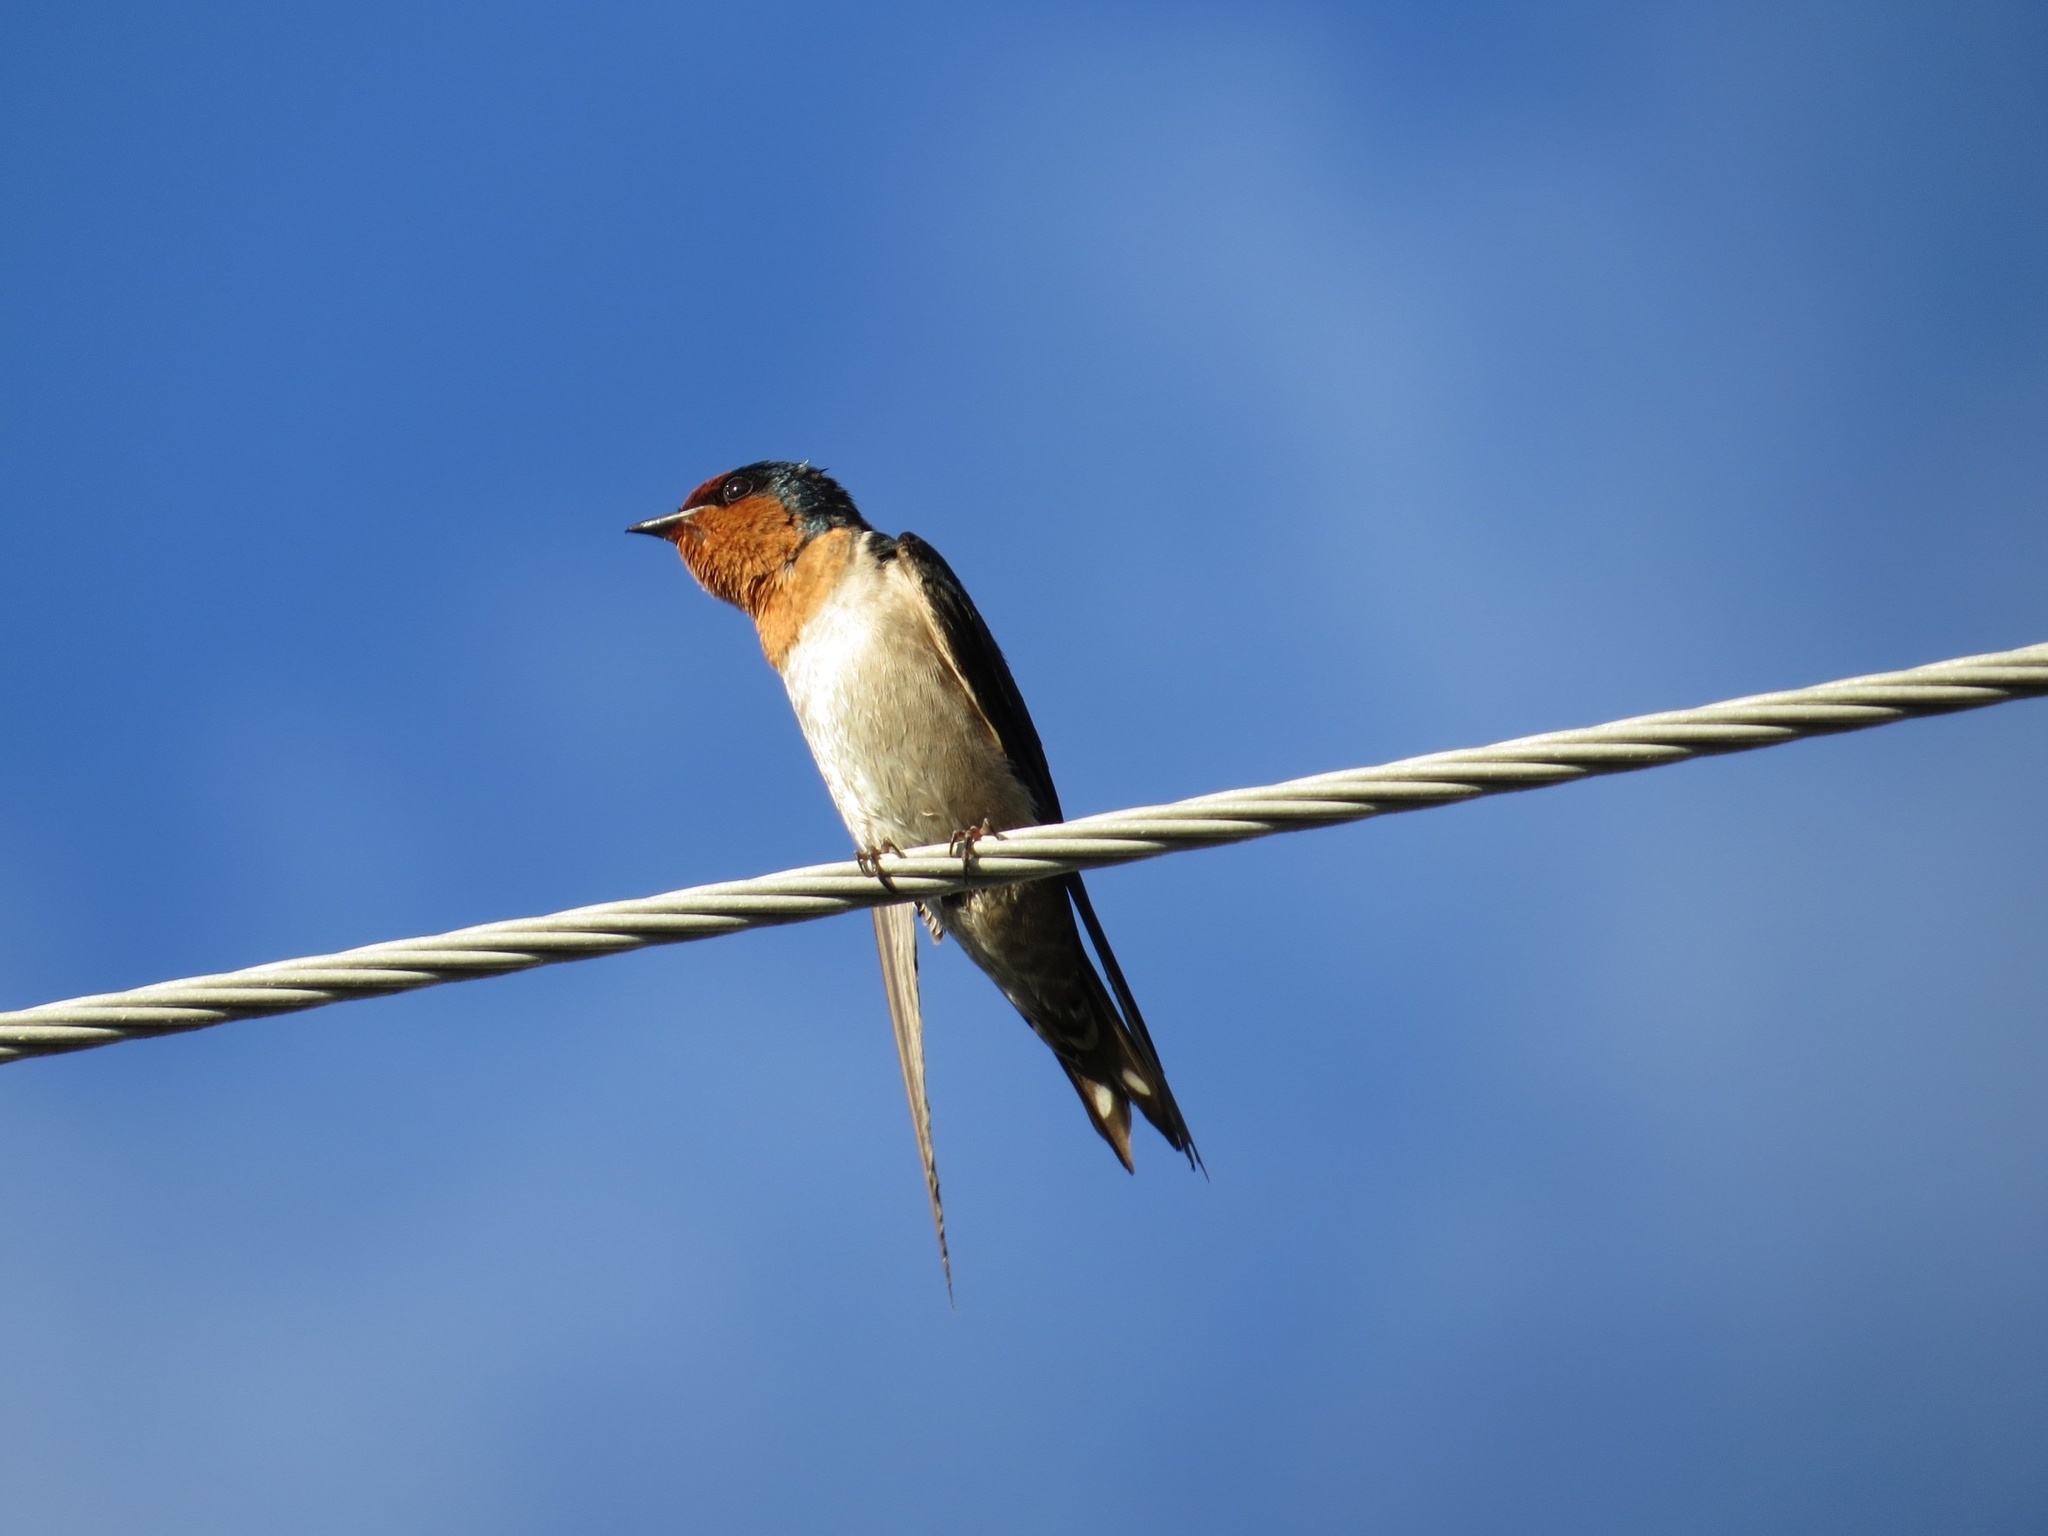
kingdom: Animalia
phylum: Chordata
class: Aves
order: Passeriformes
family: Hirundinidae
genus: Hirundo
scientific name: Hirundo tahitica
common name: Pacific swallow
